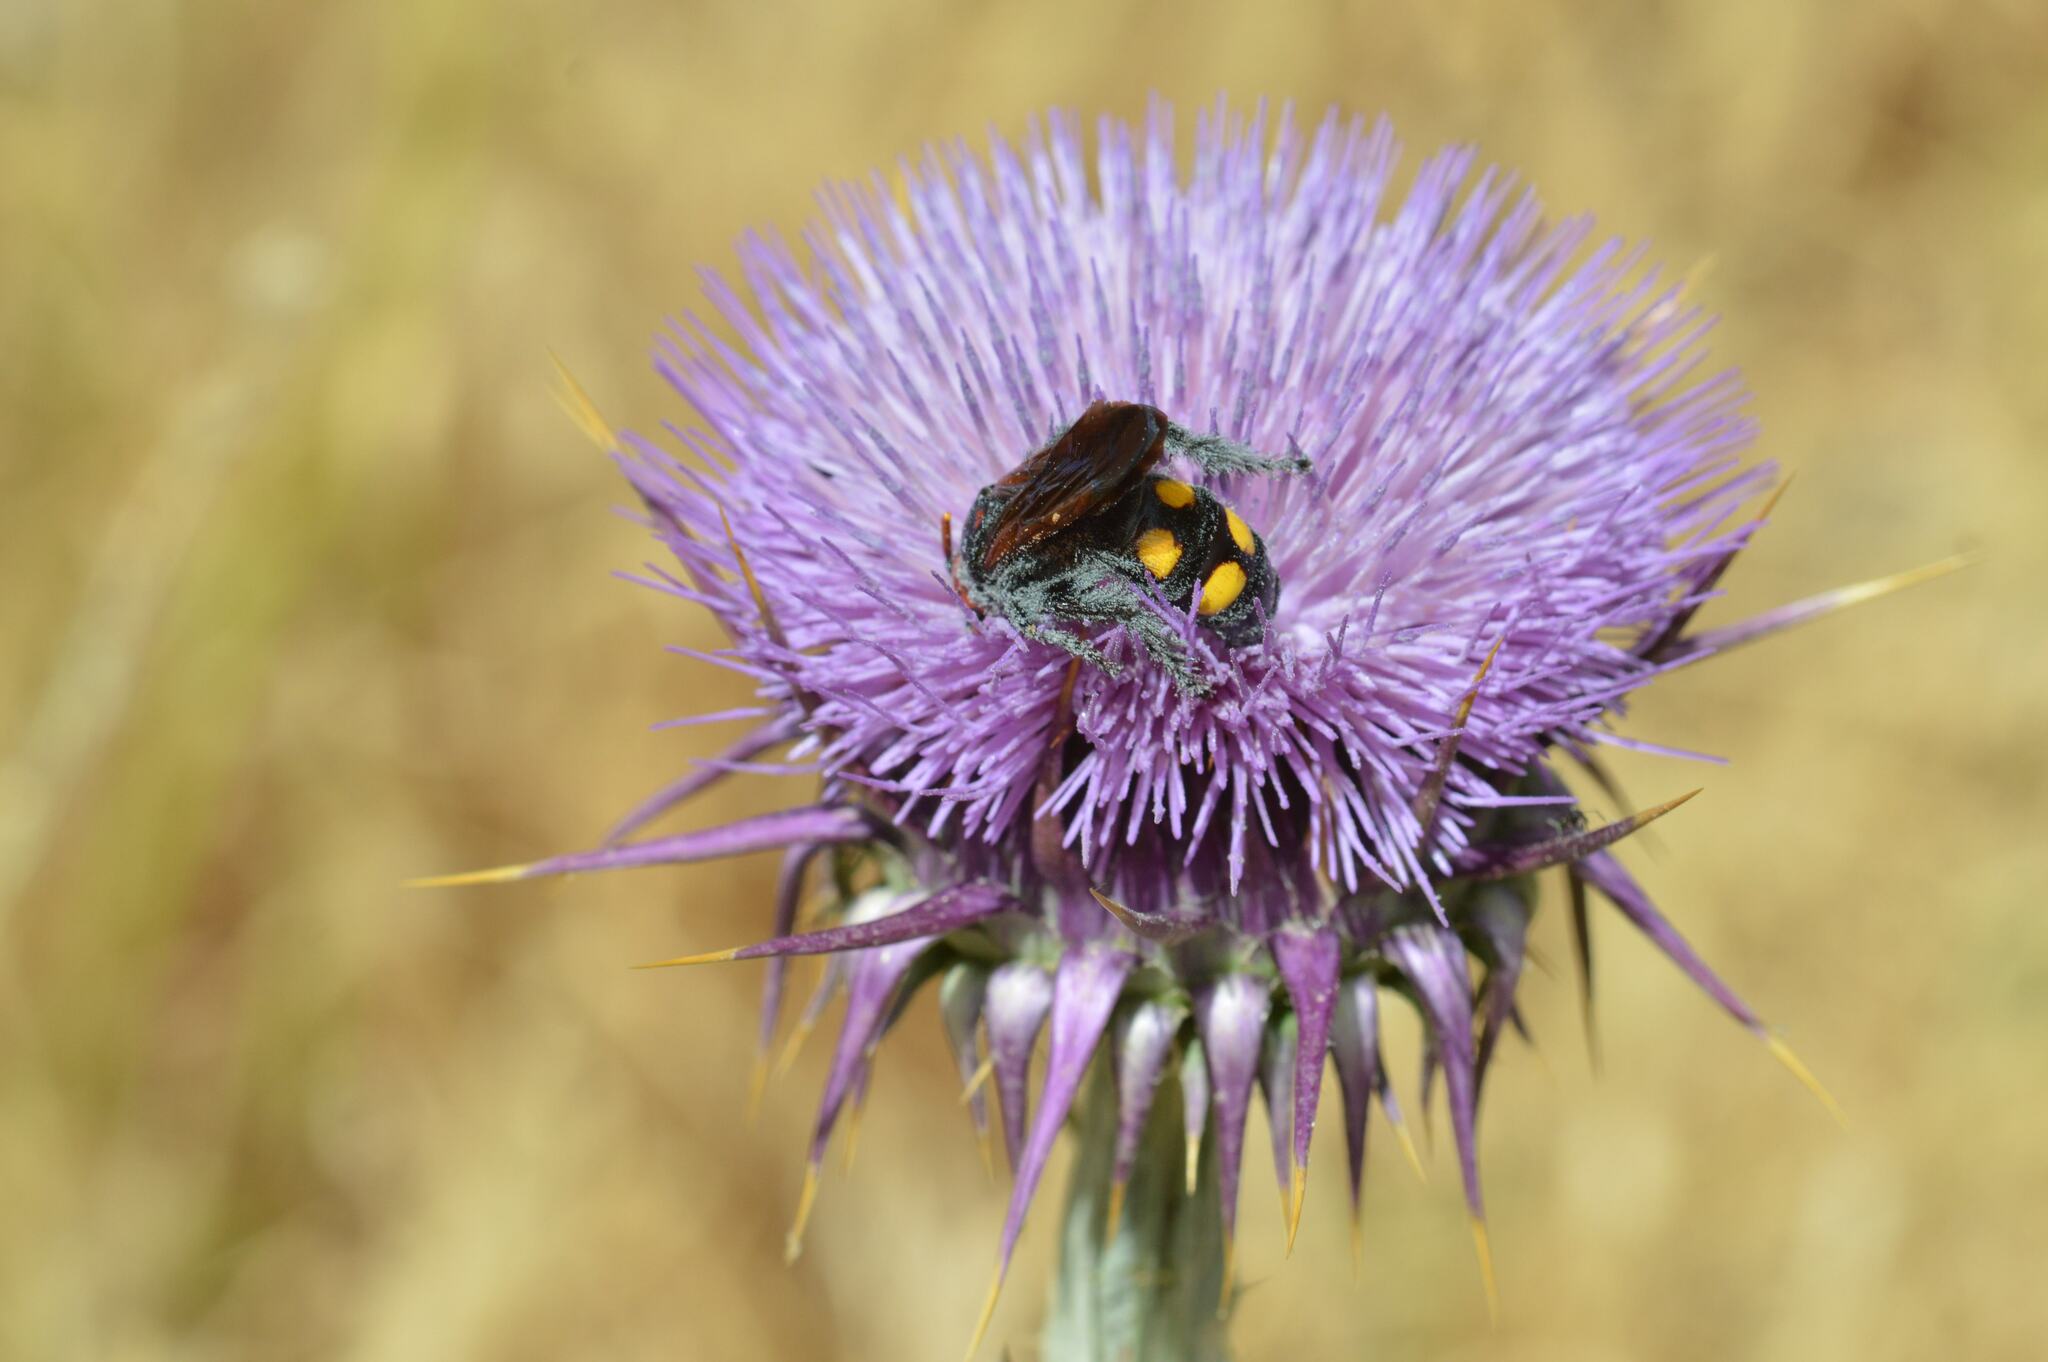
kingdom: Animalia
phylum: Arthropoda
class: Insecta
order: Hymenoptera
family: Scoliidae
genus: Megascolia
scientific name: Megascolia bidens
